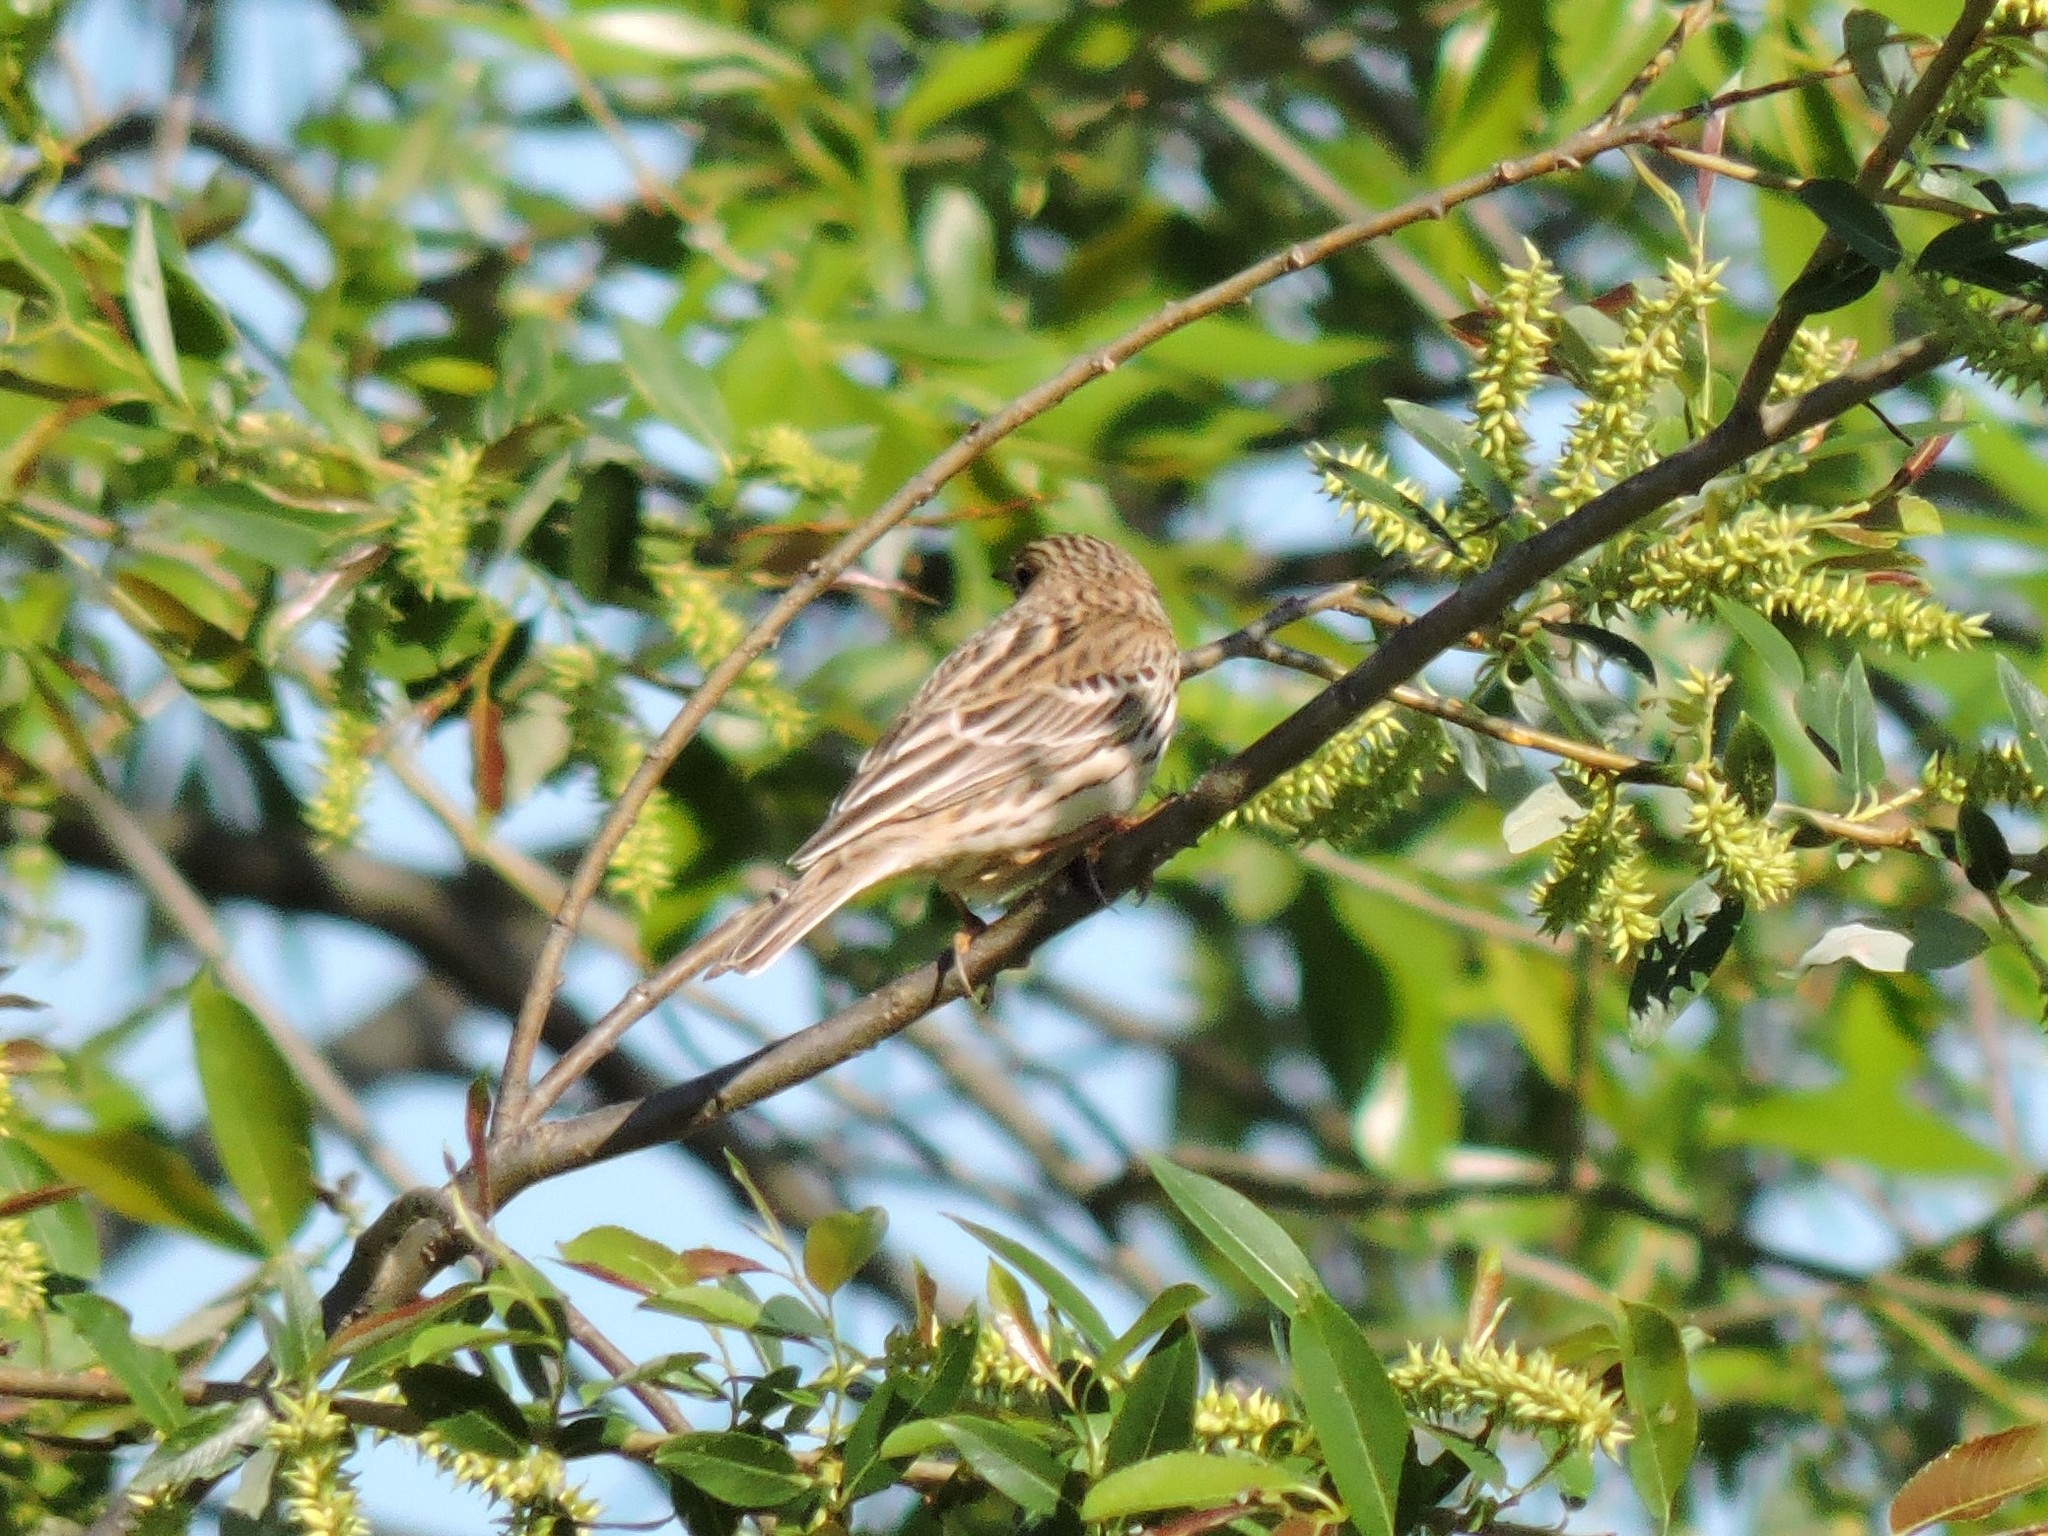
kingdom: Animalia
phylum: Chordata
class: Aves
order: Passeriformes
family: Motacillidae
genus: Anthus
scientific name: Anthus cervinus
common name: Red-throated pipit
